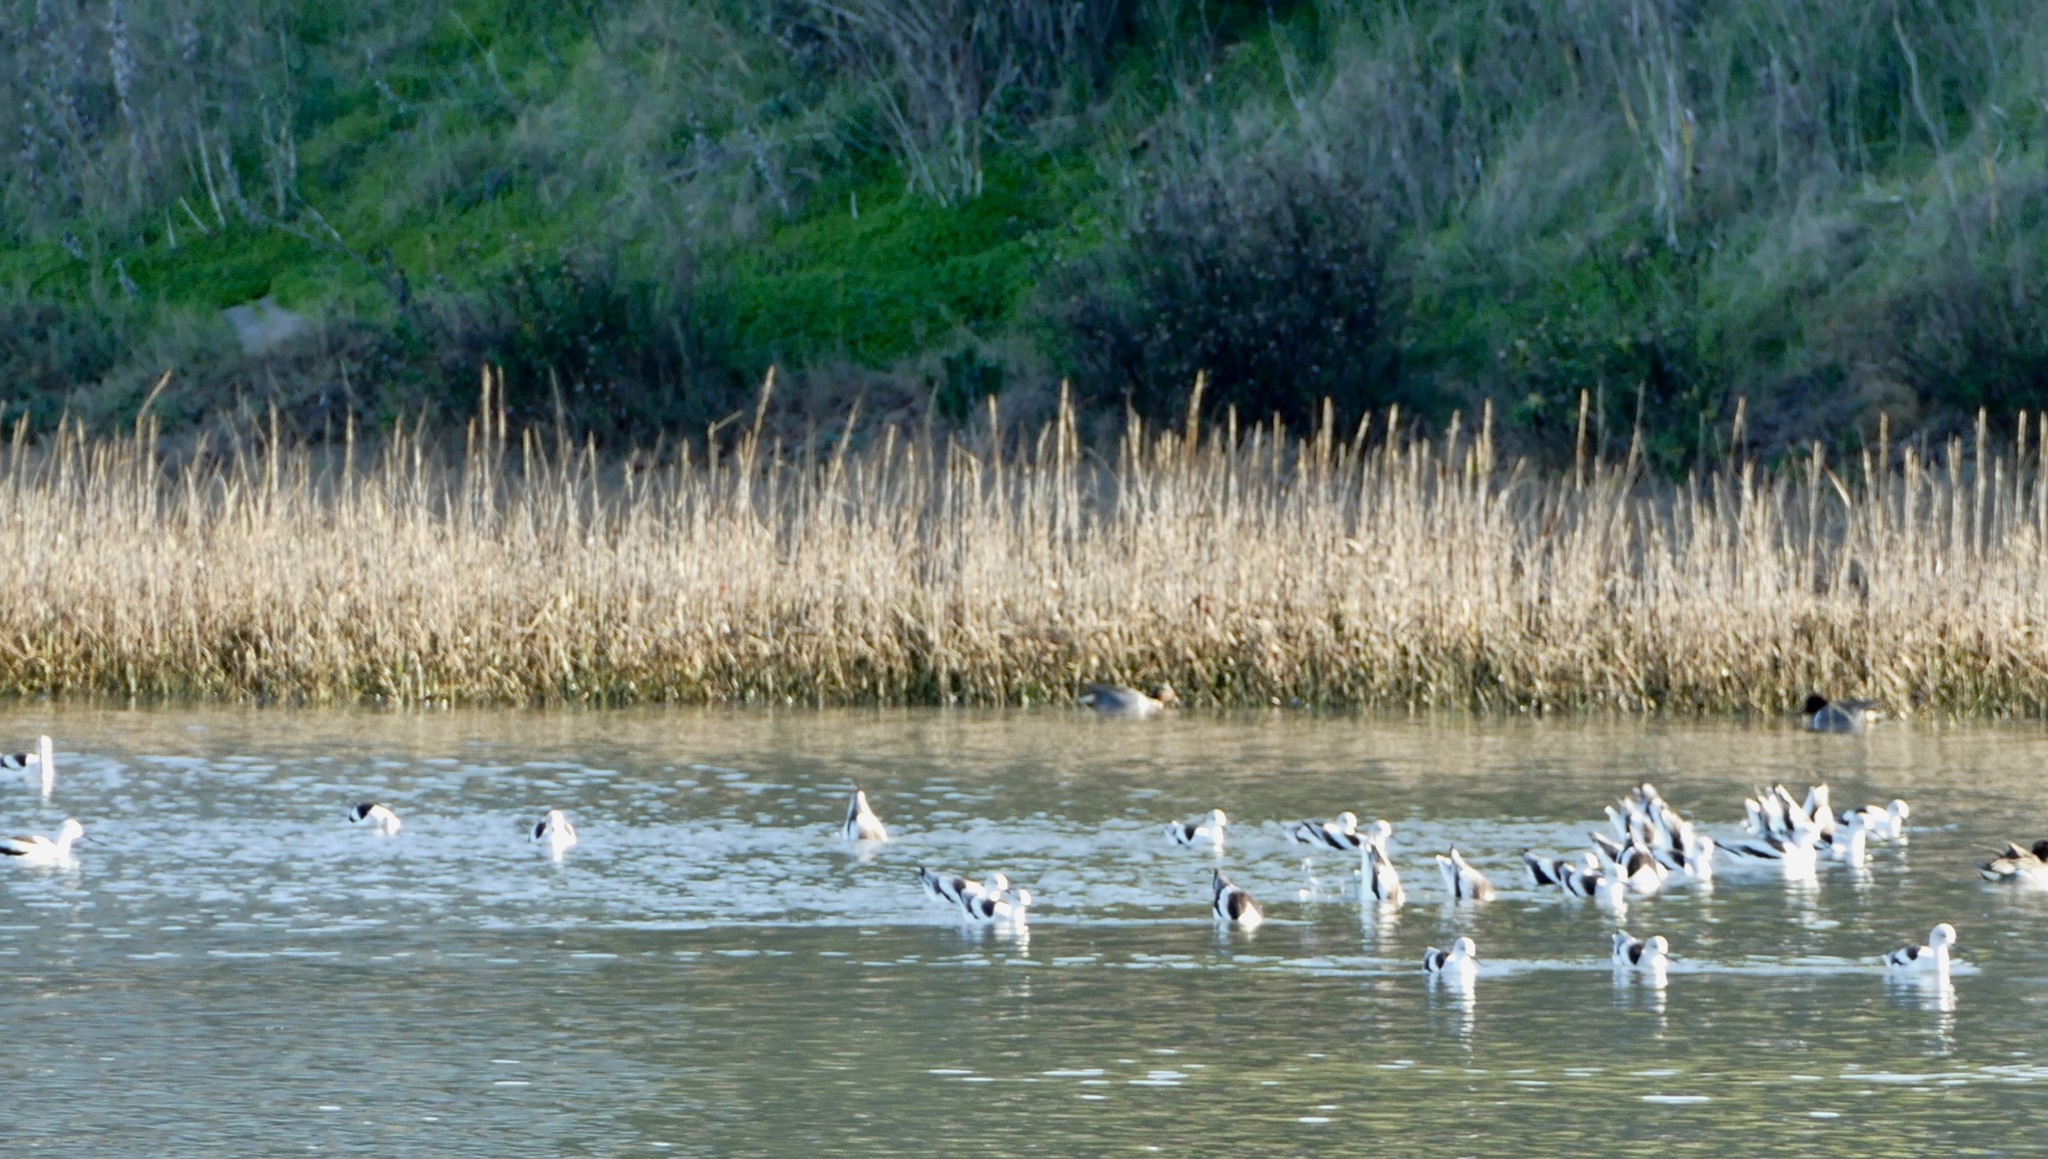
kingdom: Animalia
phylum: Chordata
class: Aves
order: Charadriiformes
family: Recurvirostridae
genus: Recurvirostra
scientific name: Recurvirostra americana
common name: American avocet
